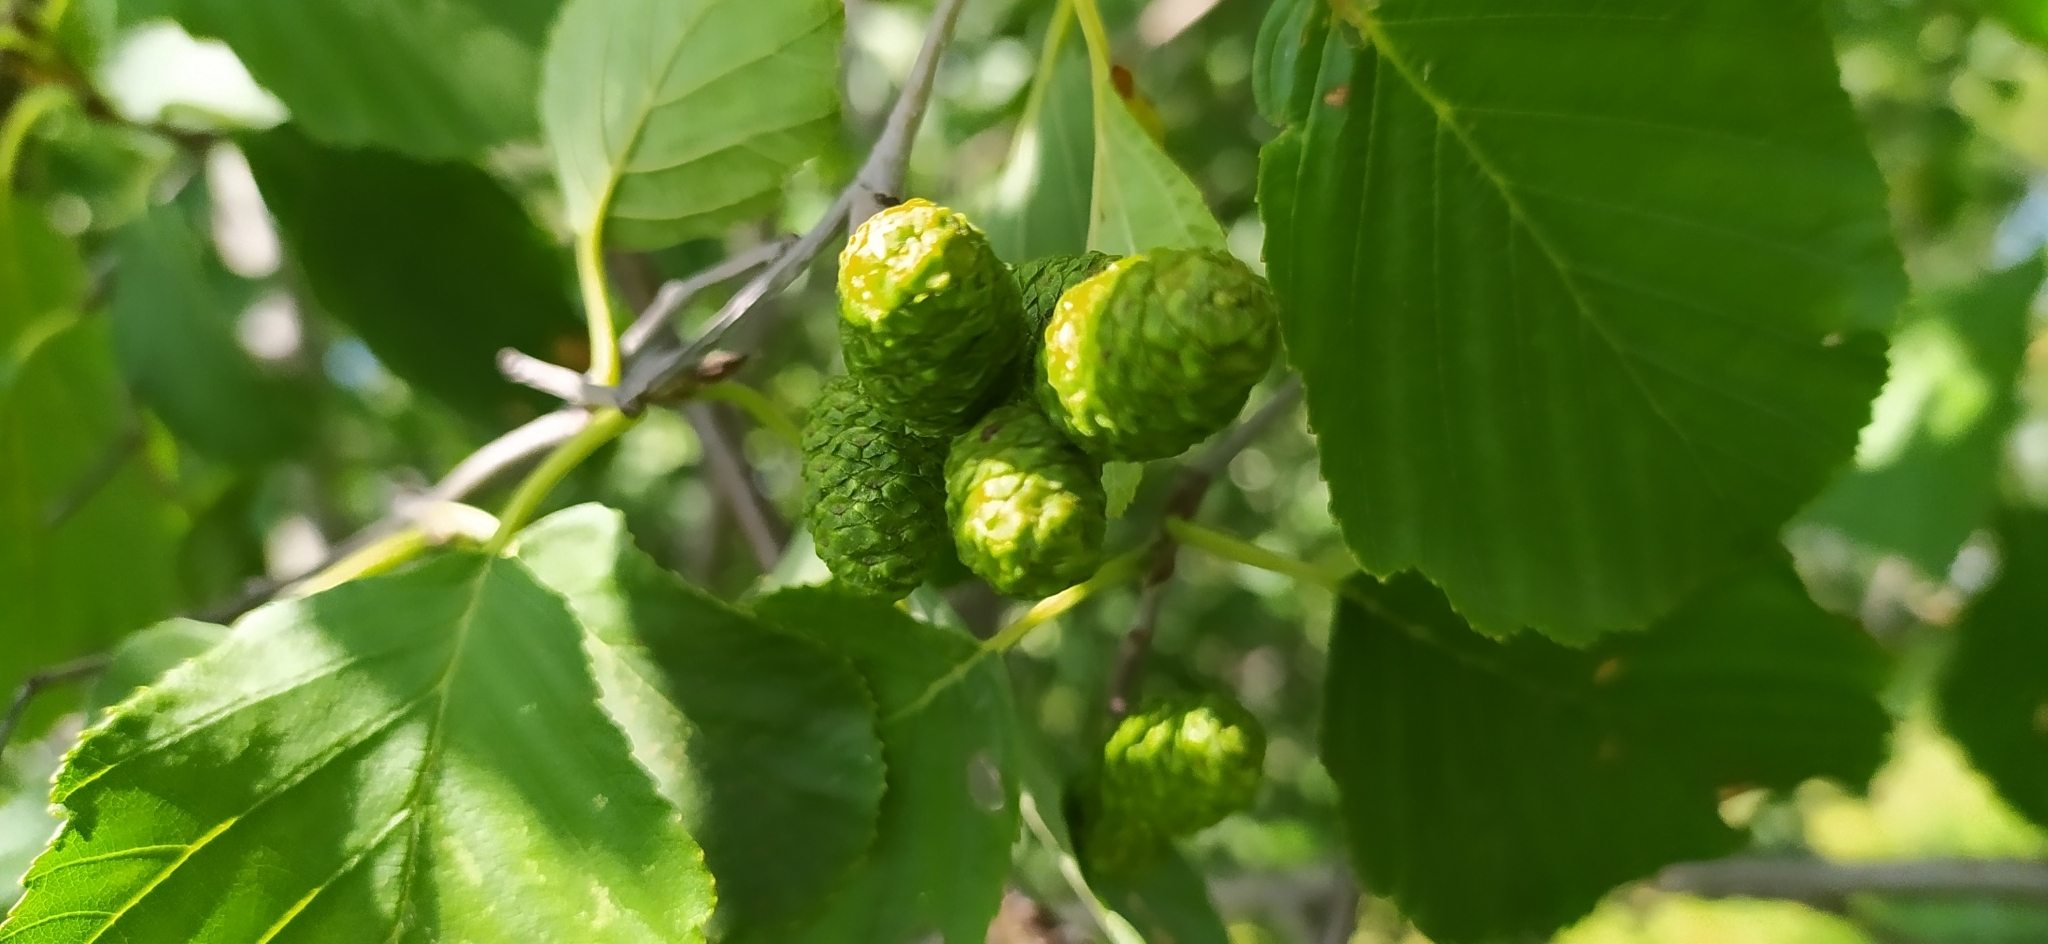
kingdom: Plantae
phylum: Tracheophyta
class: Magnoliopsida
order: Fagales
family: Betulaceae
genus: Alnus
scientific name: Alnus incana
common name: Grey alder
